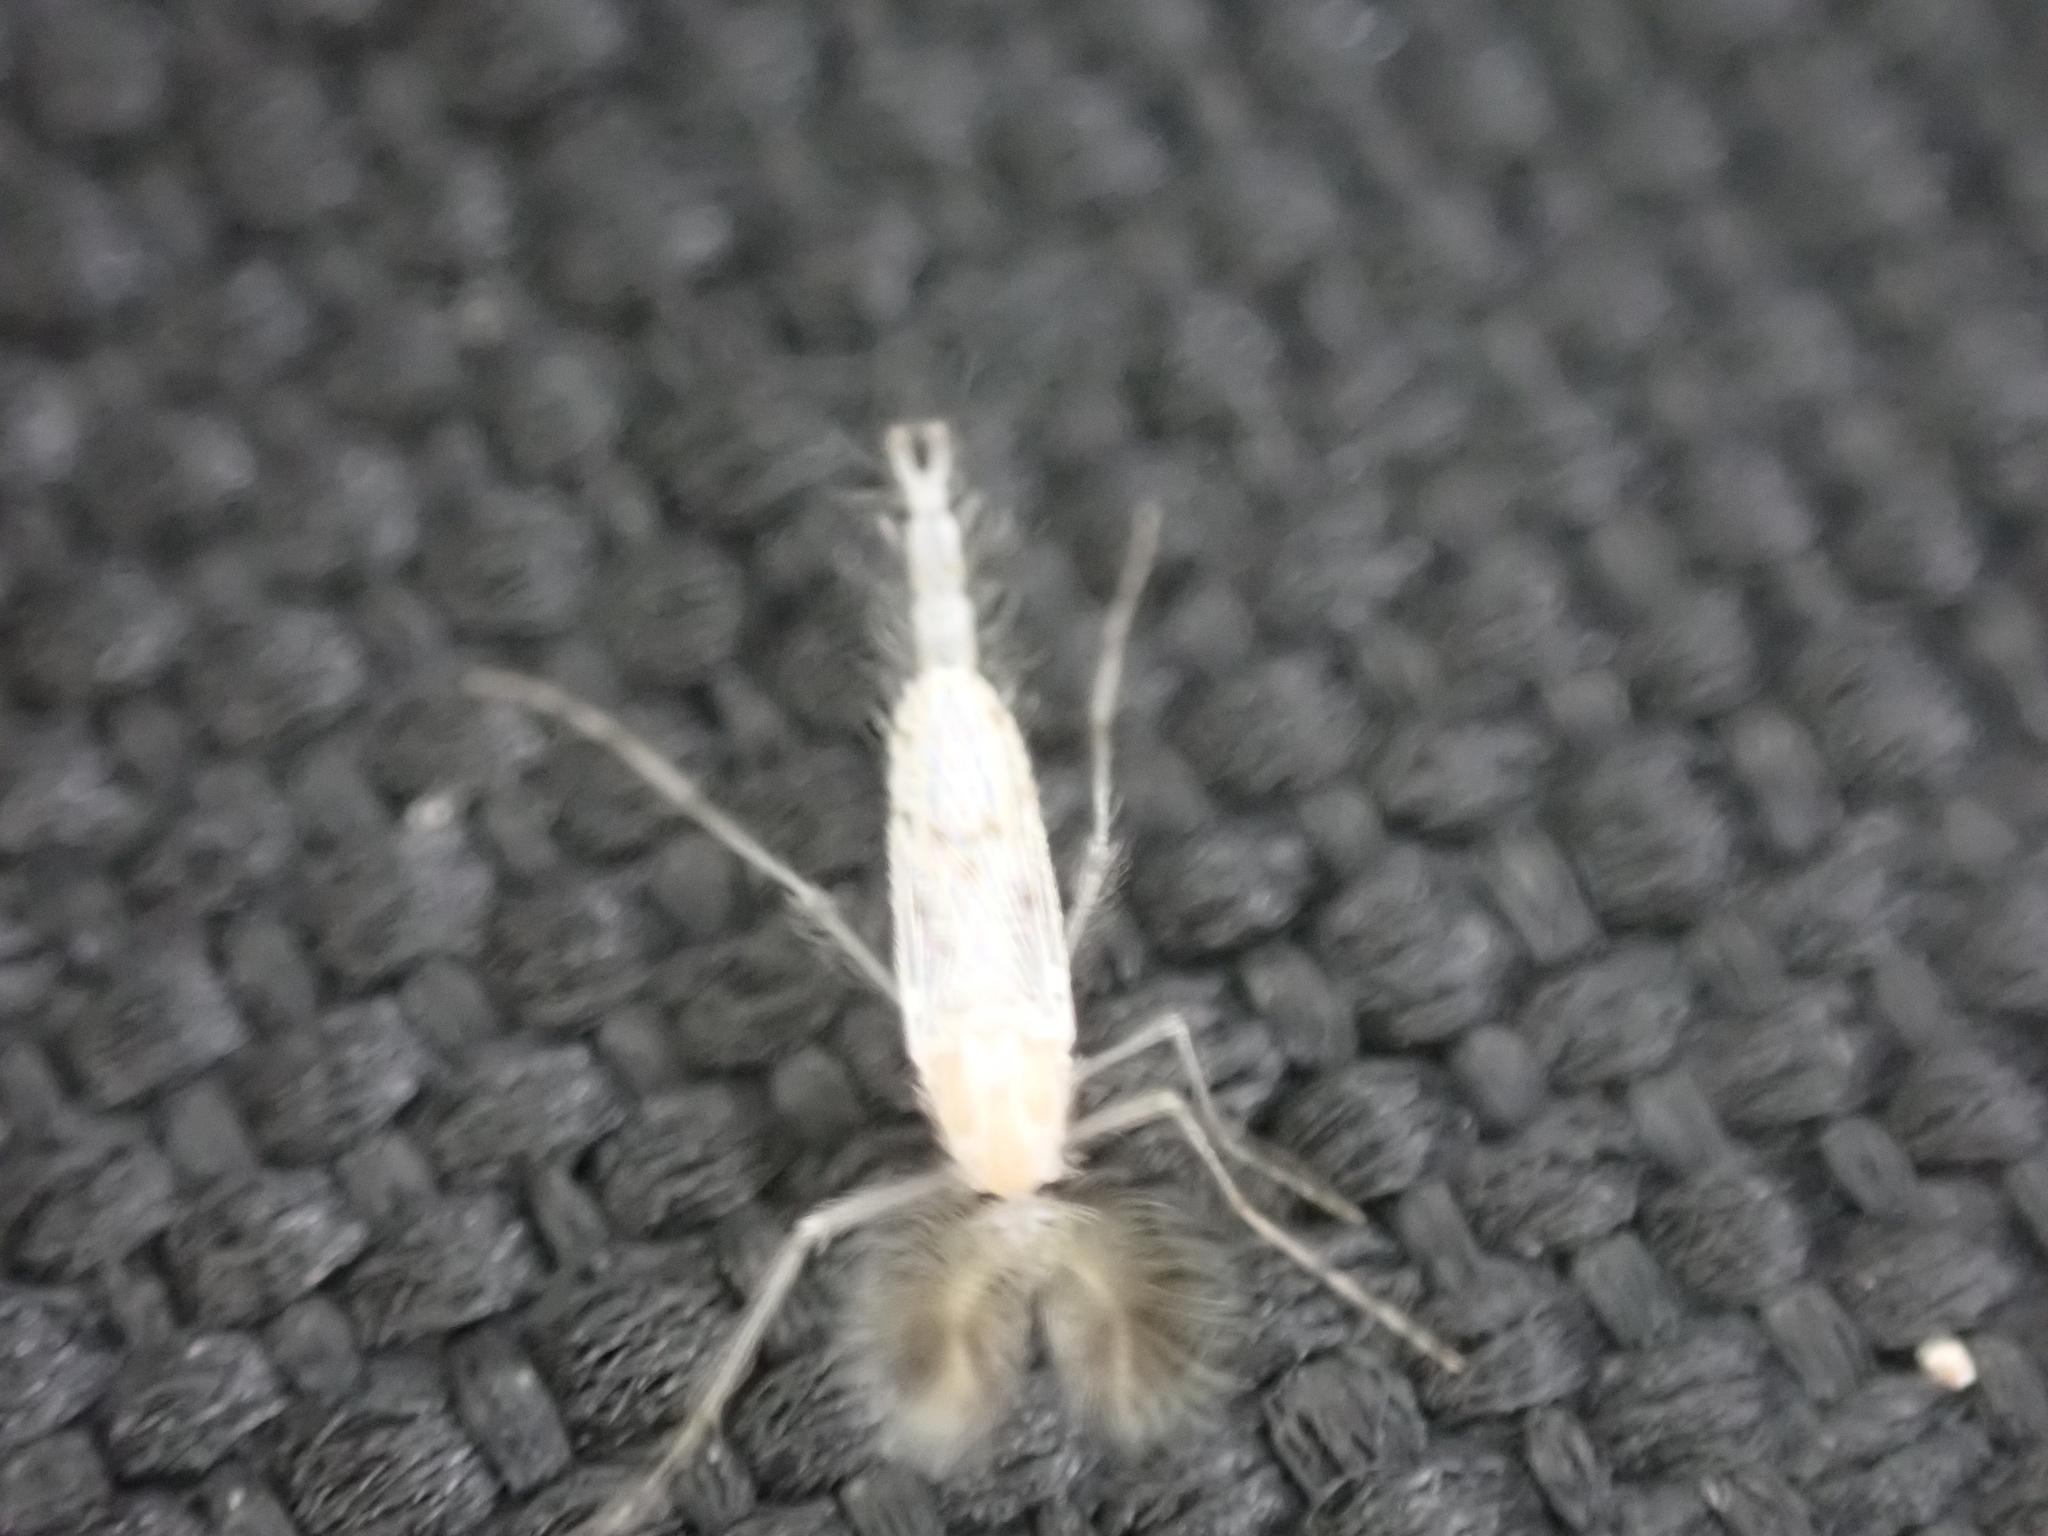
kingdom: Animalia
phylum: Arthropoda
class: Insecta
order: Diptera
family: Chaoboridae
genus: Chaoborus
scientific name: Chaoborus albatus
